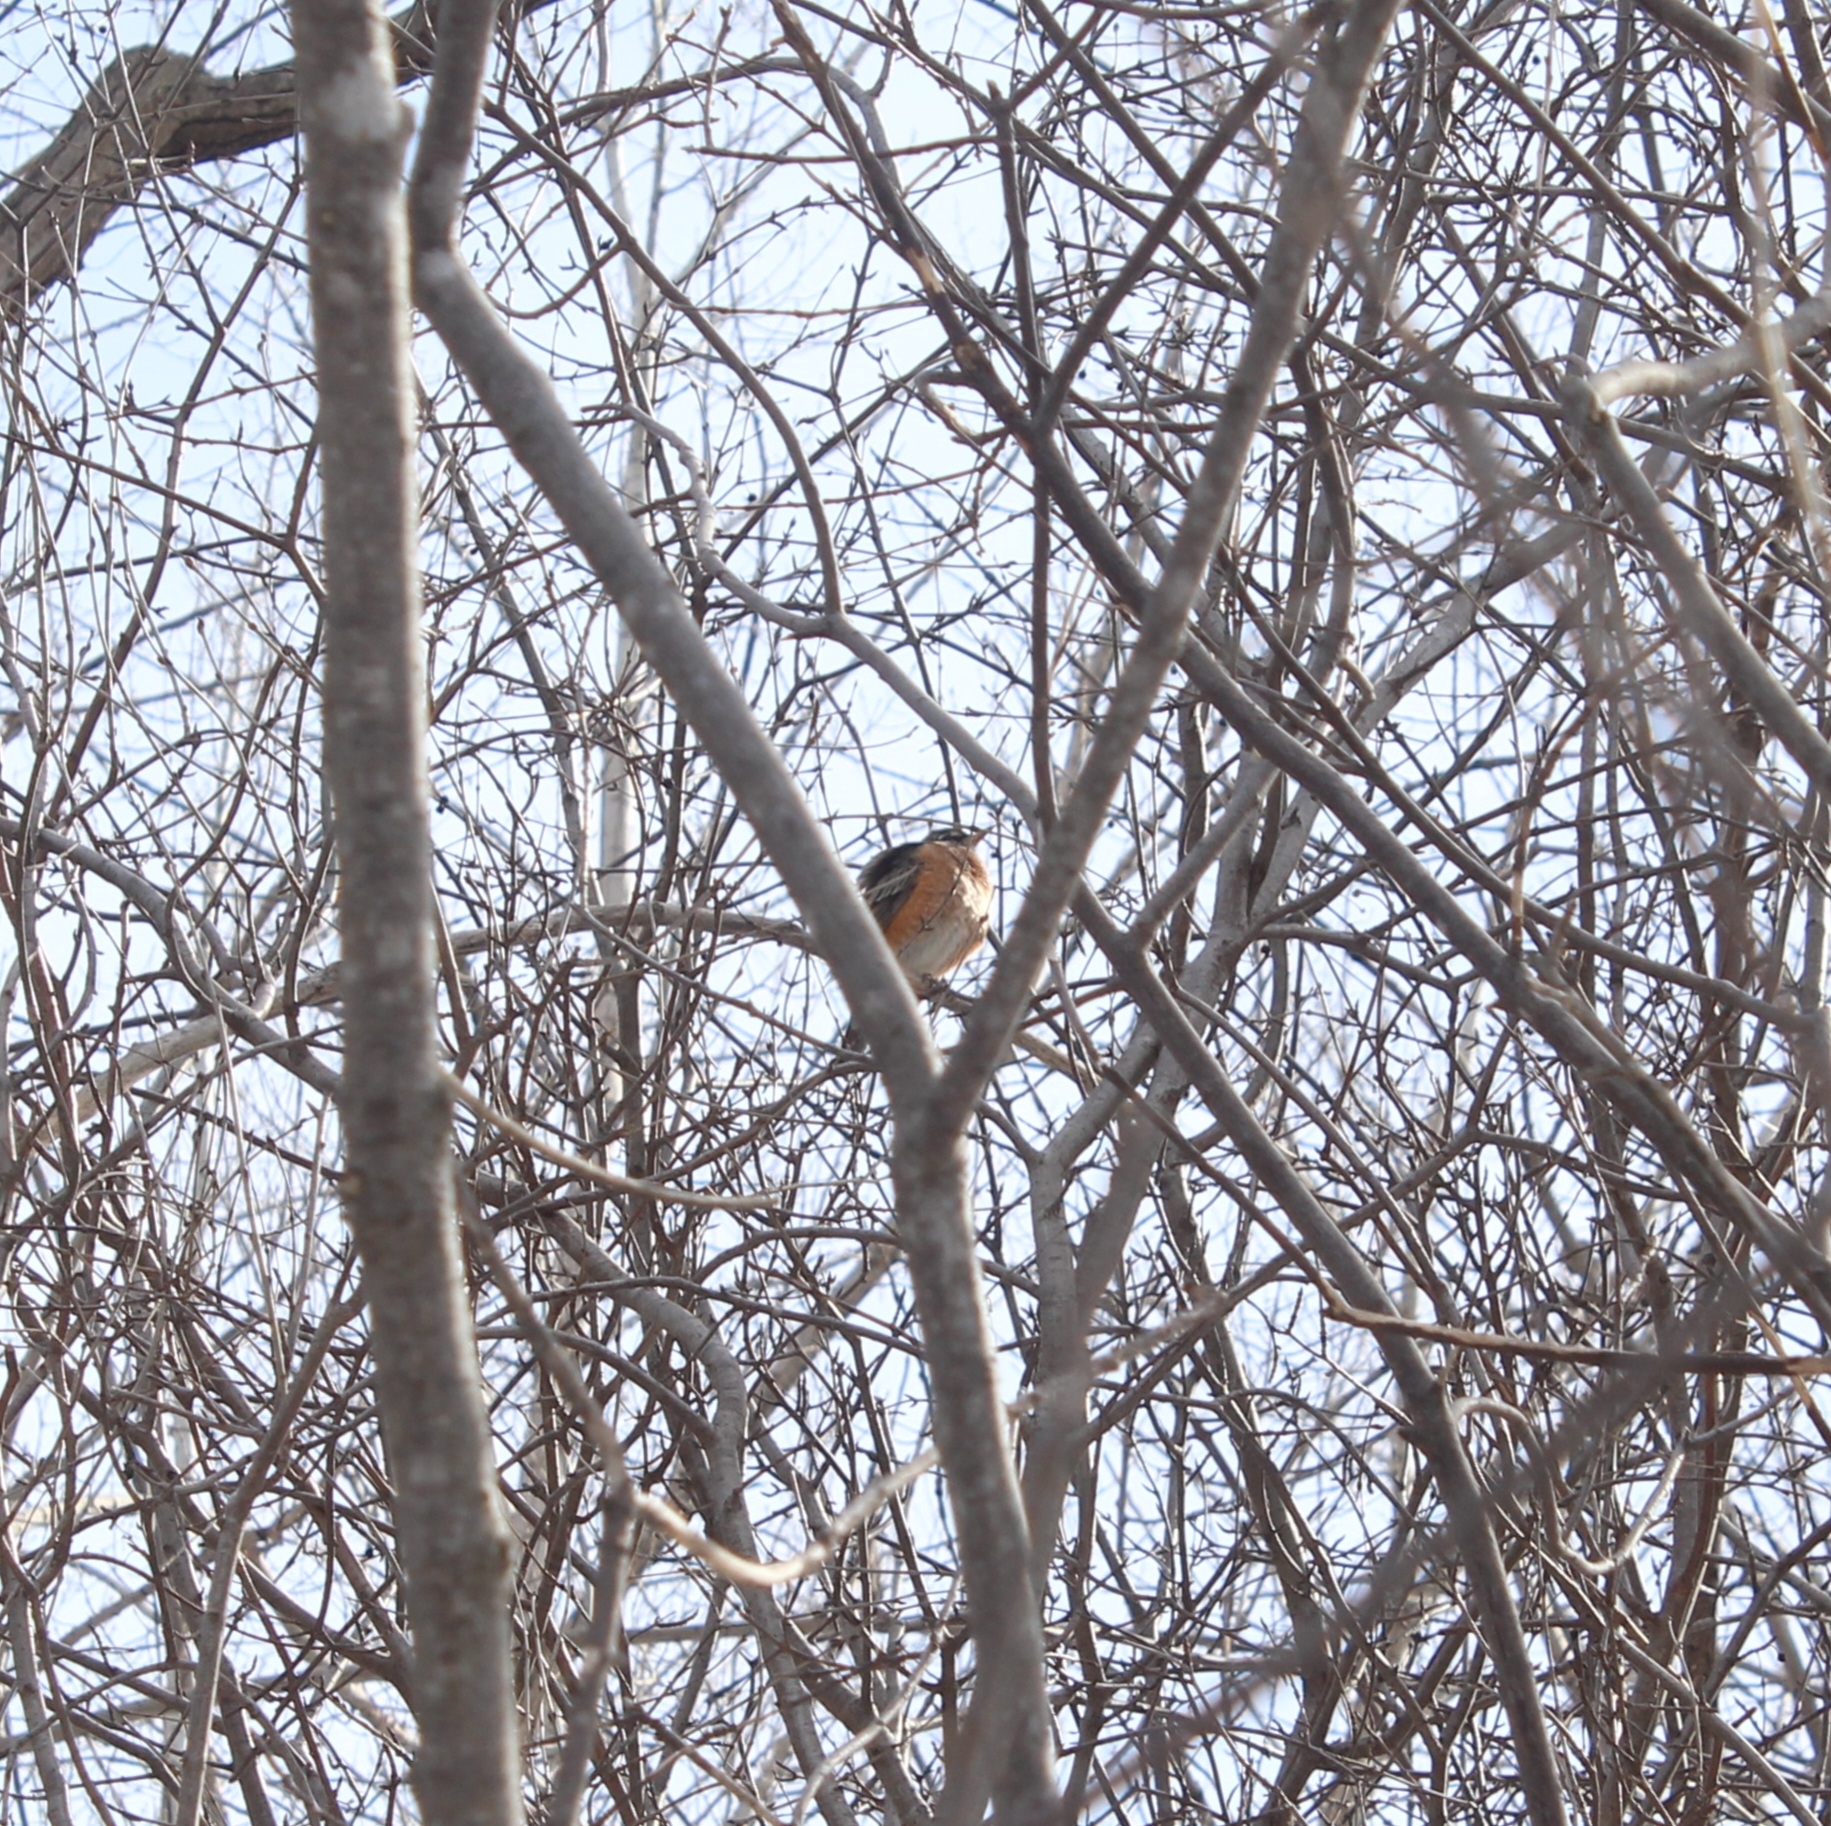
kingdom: Animalia
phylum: Chordata
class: Aves
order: Passeriformes
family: Turdidae
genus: Turdus
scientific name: Turdus migratorius
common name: American robin
